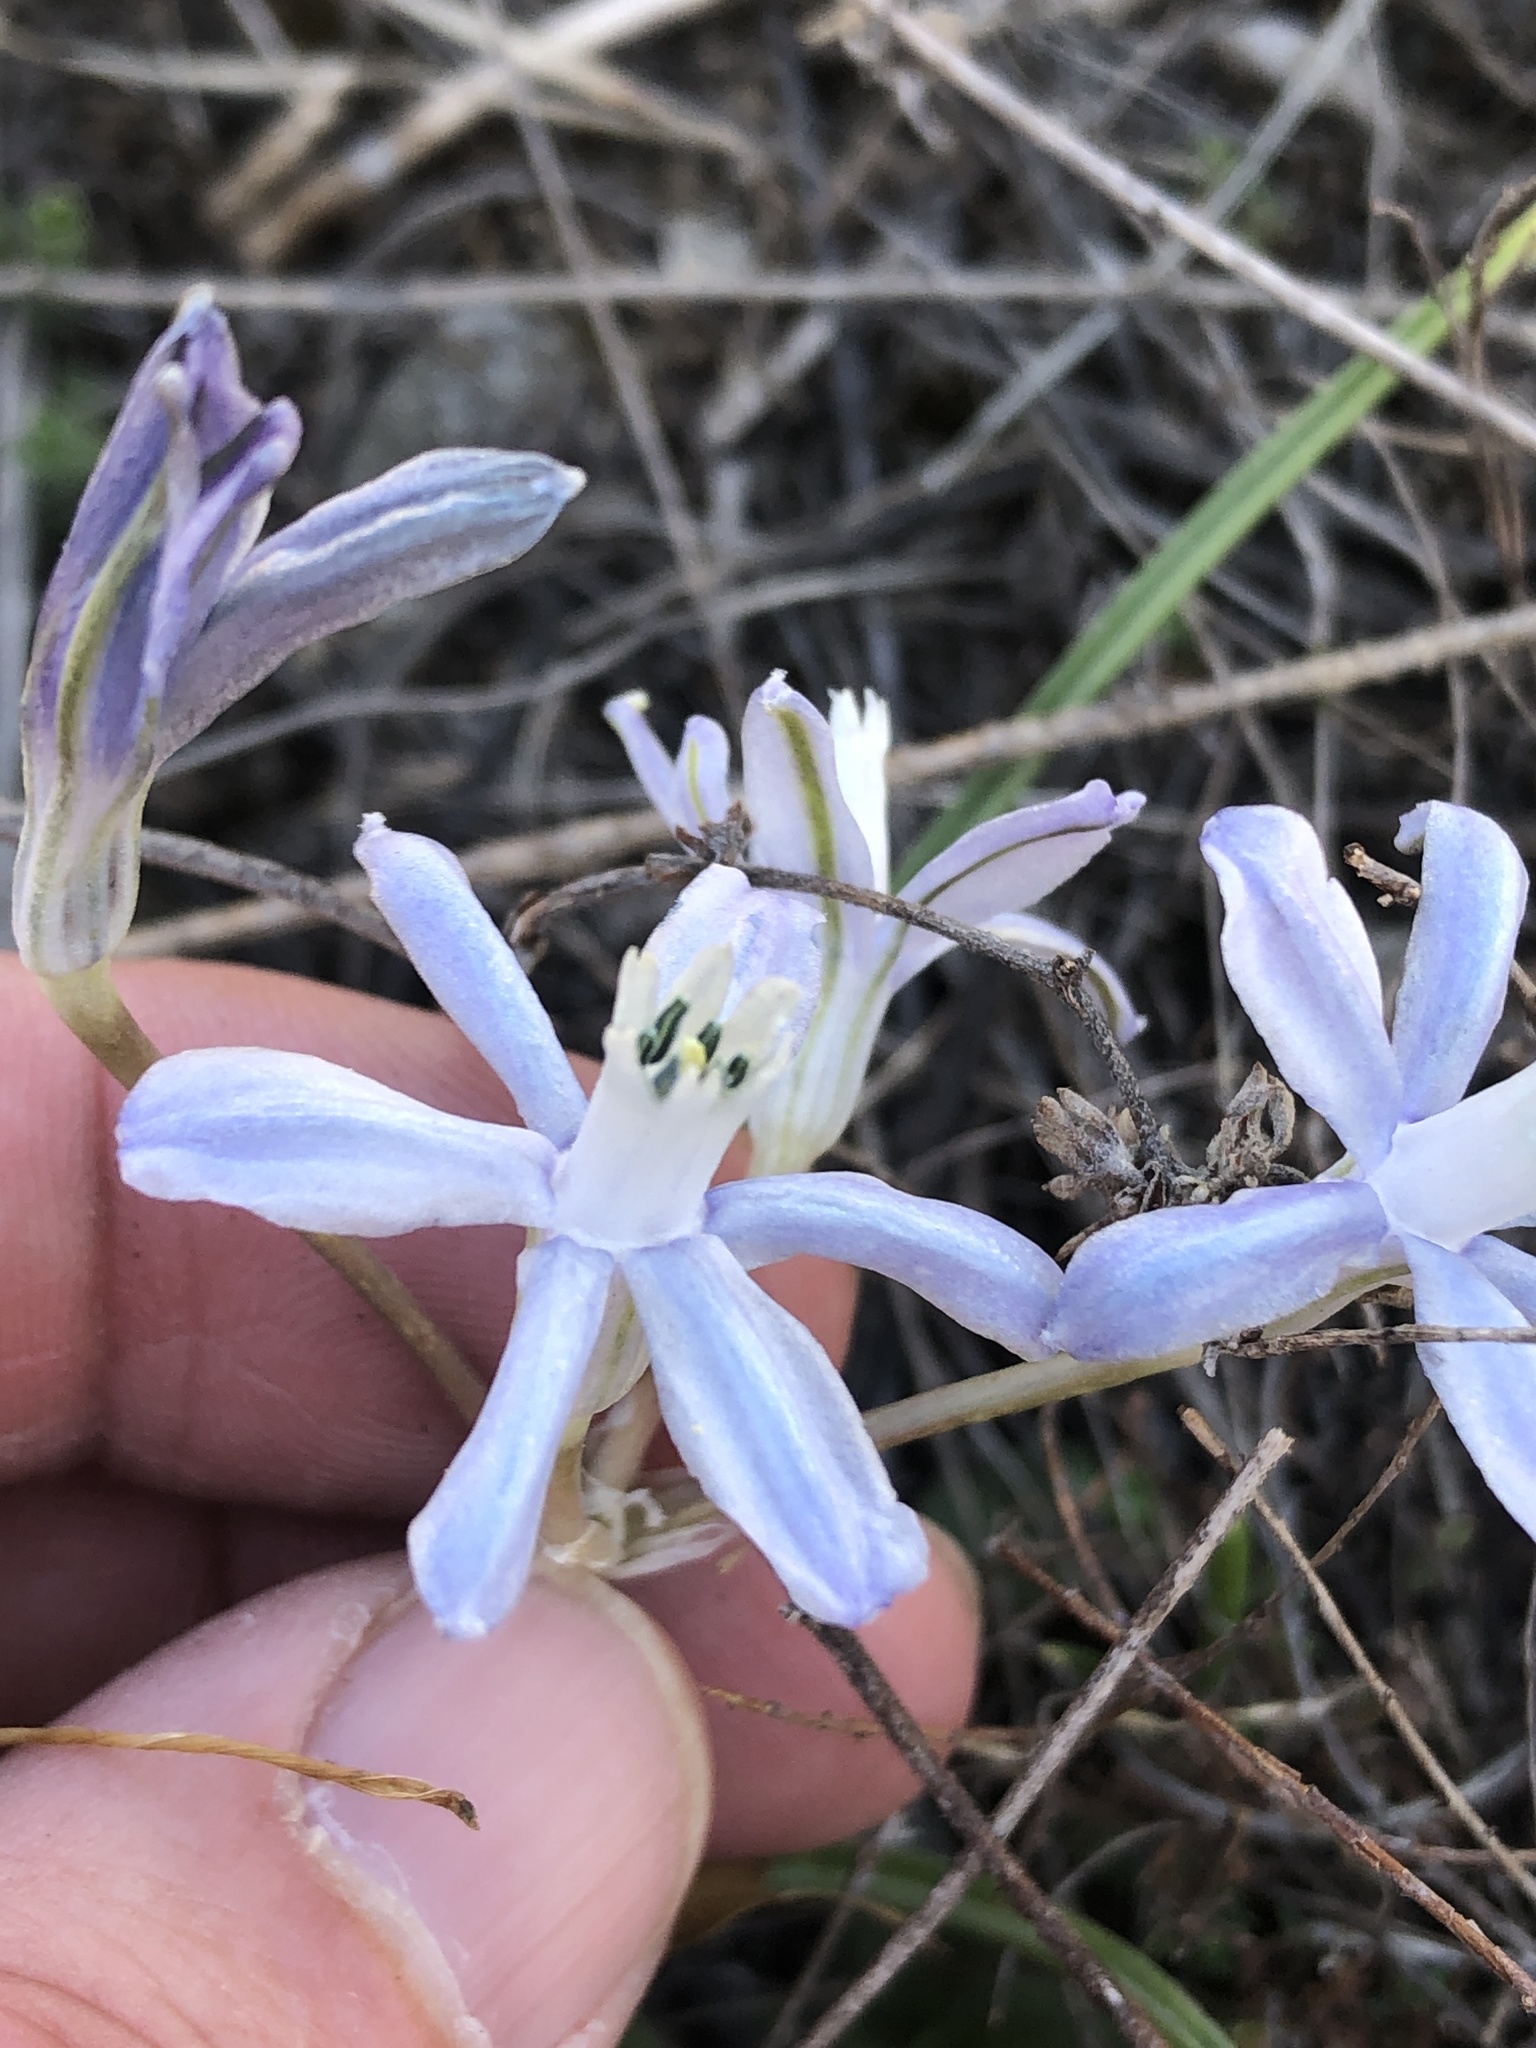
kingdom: Plantae
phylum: Tracheophyta
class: Liliopsida
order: Asparagales
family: Asparagaceae
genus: Androstephium
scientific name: Androstephium coeruleum
